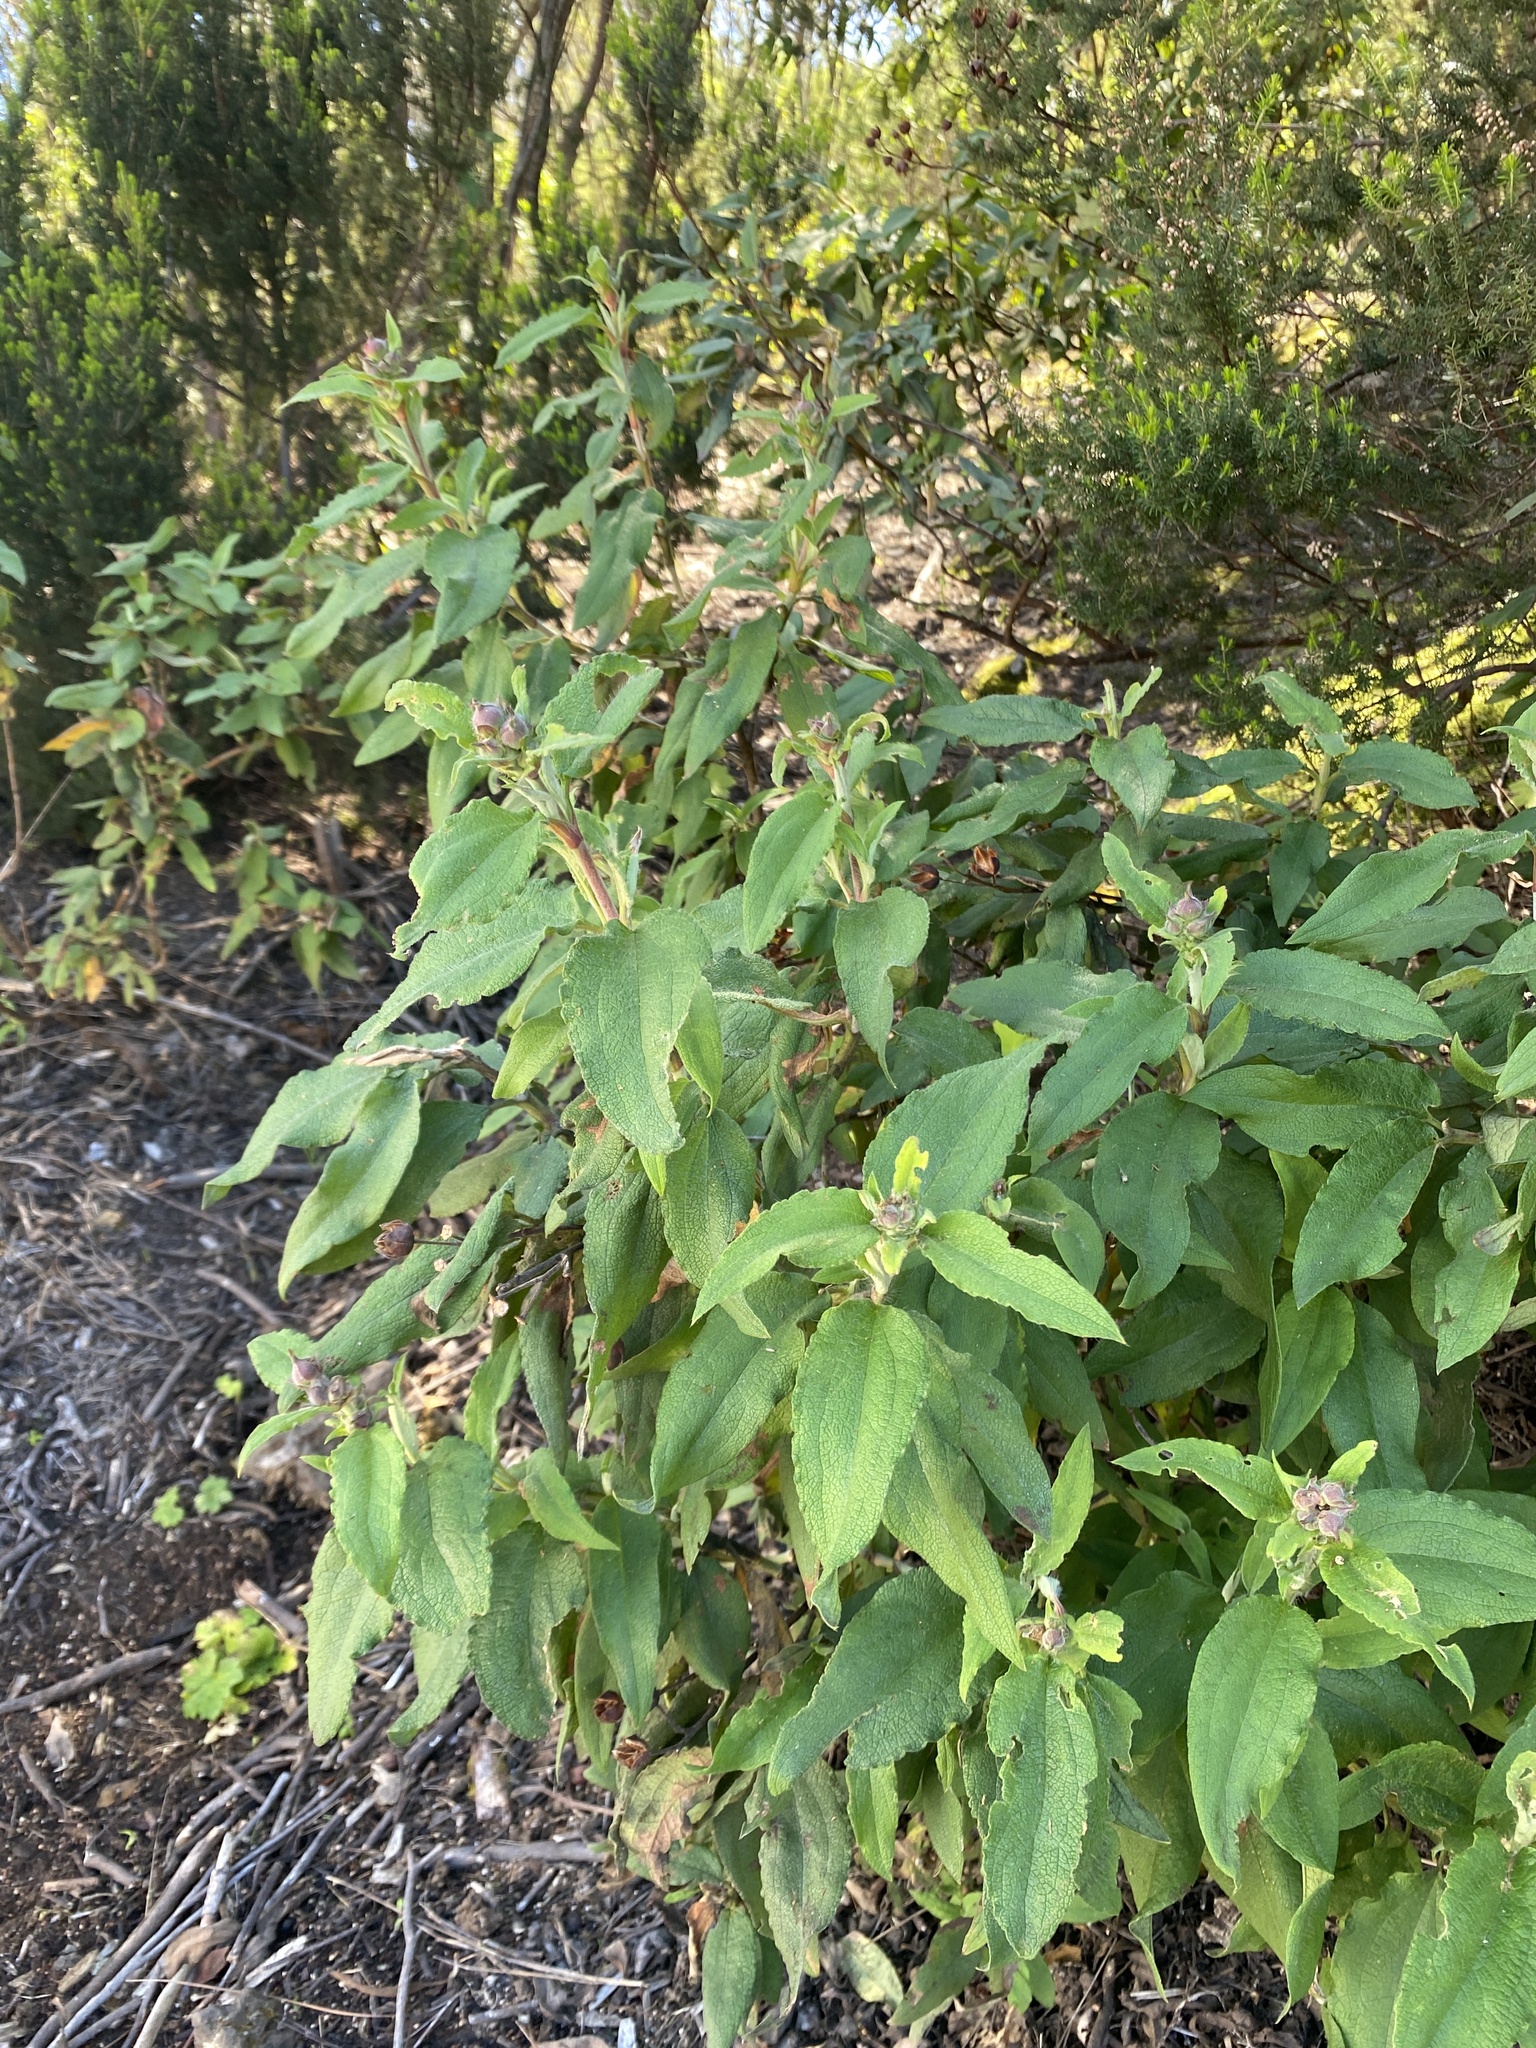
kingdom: Plantae
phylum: Tracheophyta
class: Magnoliopsida
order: Malvales
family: Cistaceae
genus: Cistus
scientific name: Cistus symphytifolius
